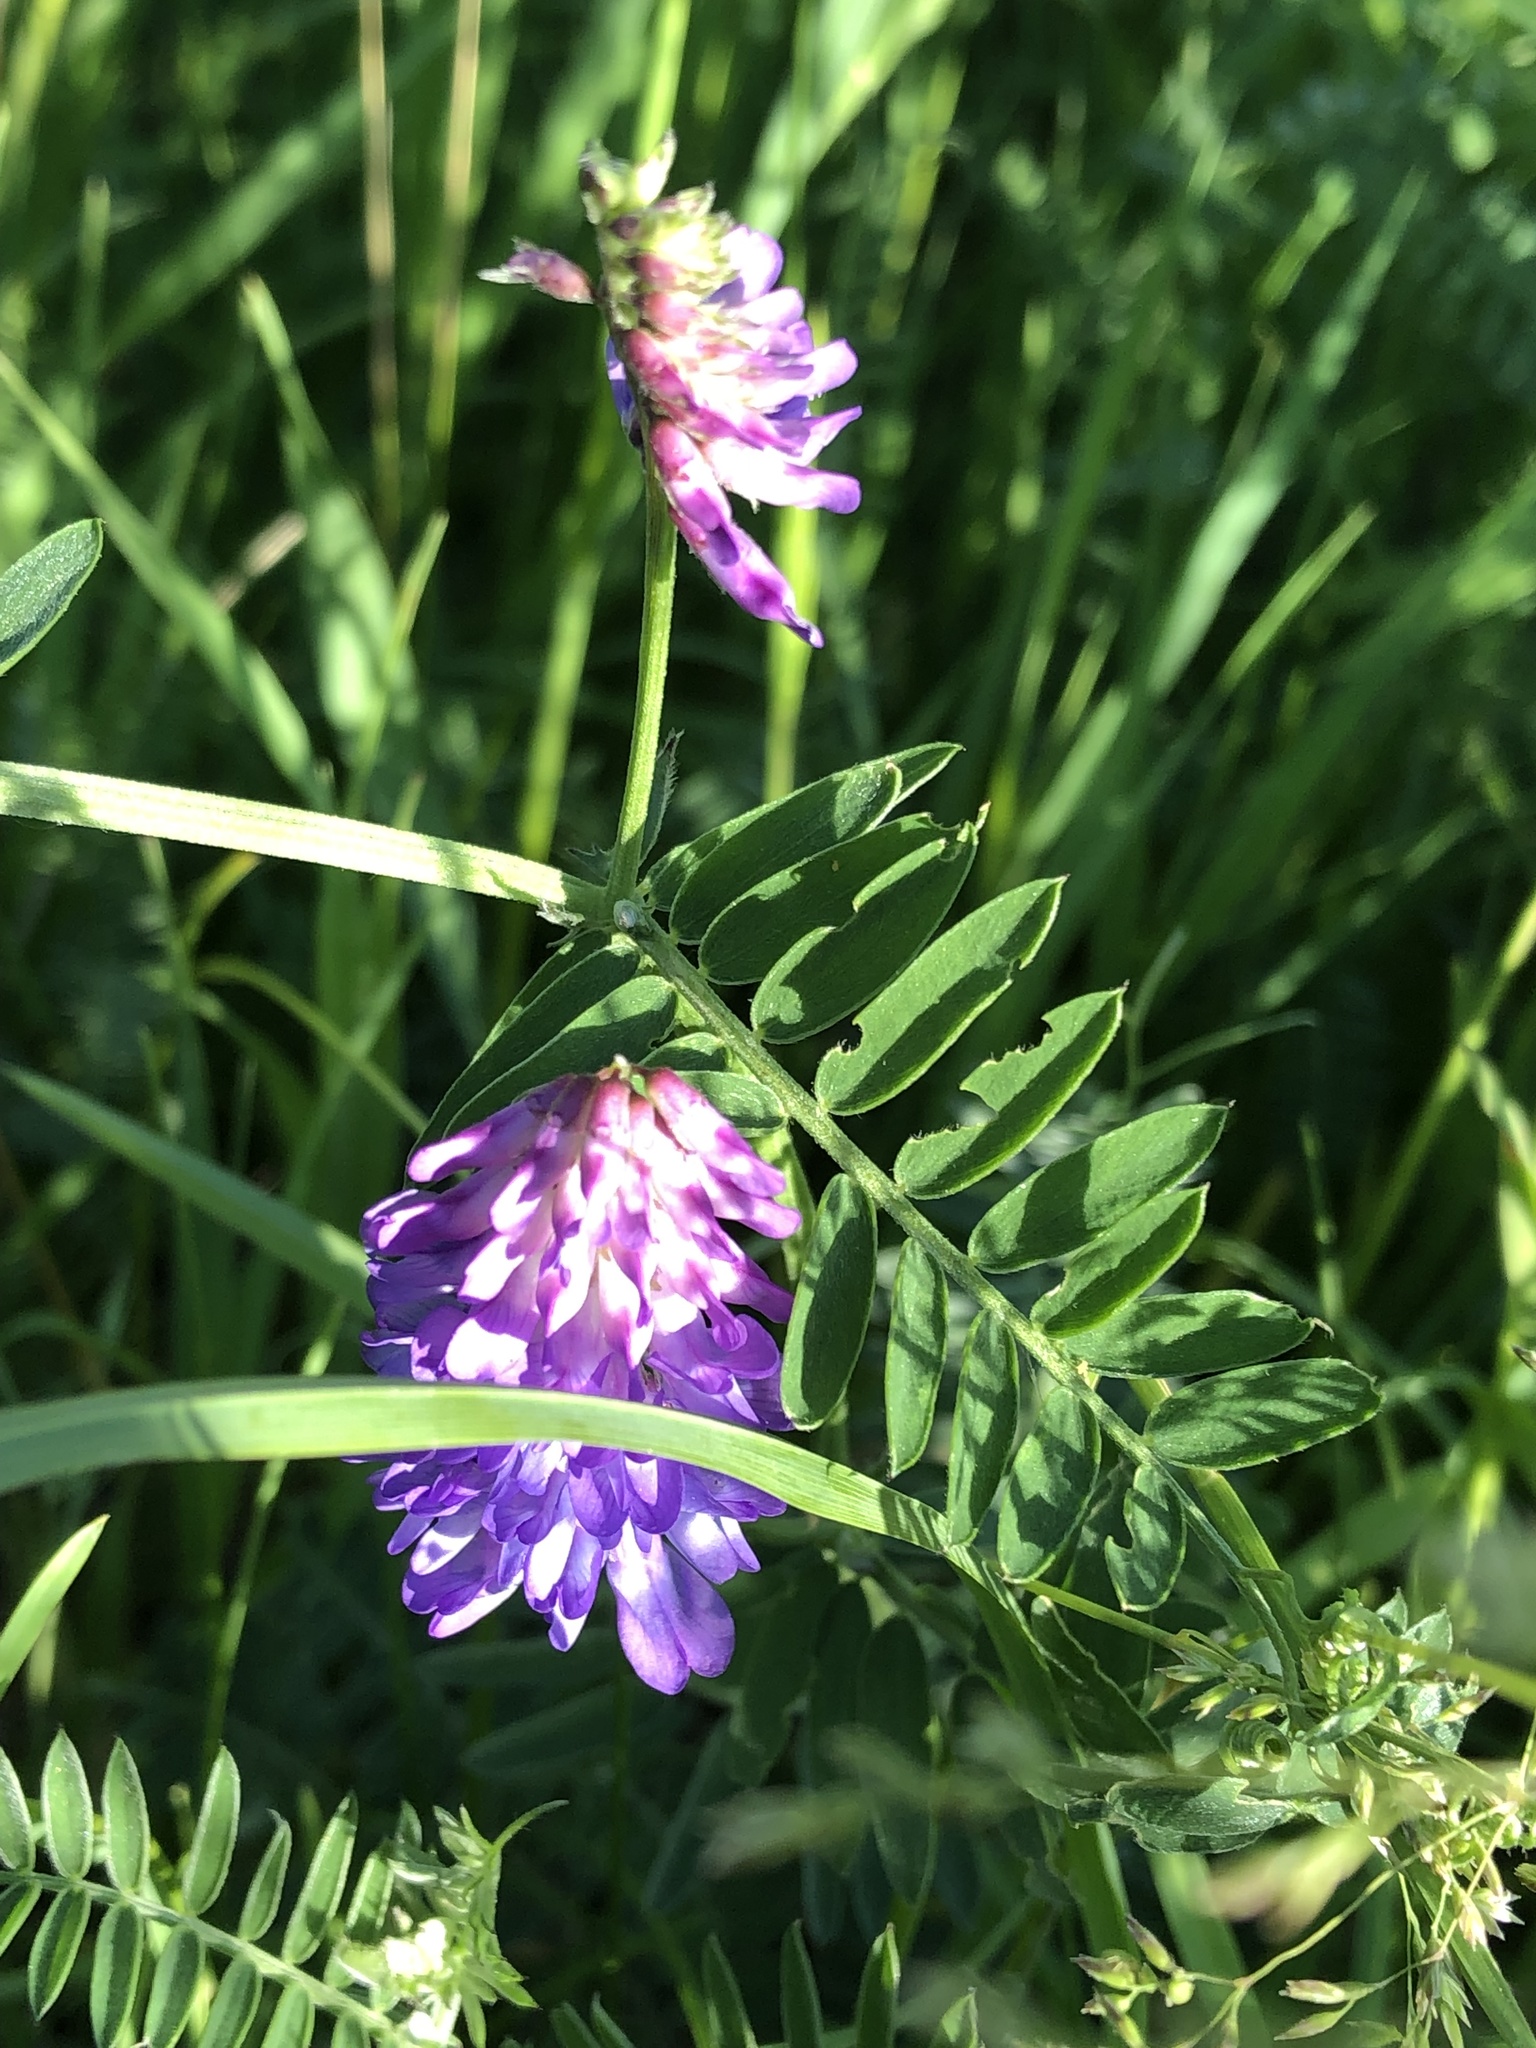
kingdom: Plantae
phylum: Tracheophyta
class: Magnoliopsida
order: Fabales
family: Fabaceae
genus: Vicia
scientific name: Vicia cracca
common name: Bird vetch
